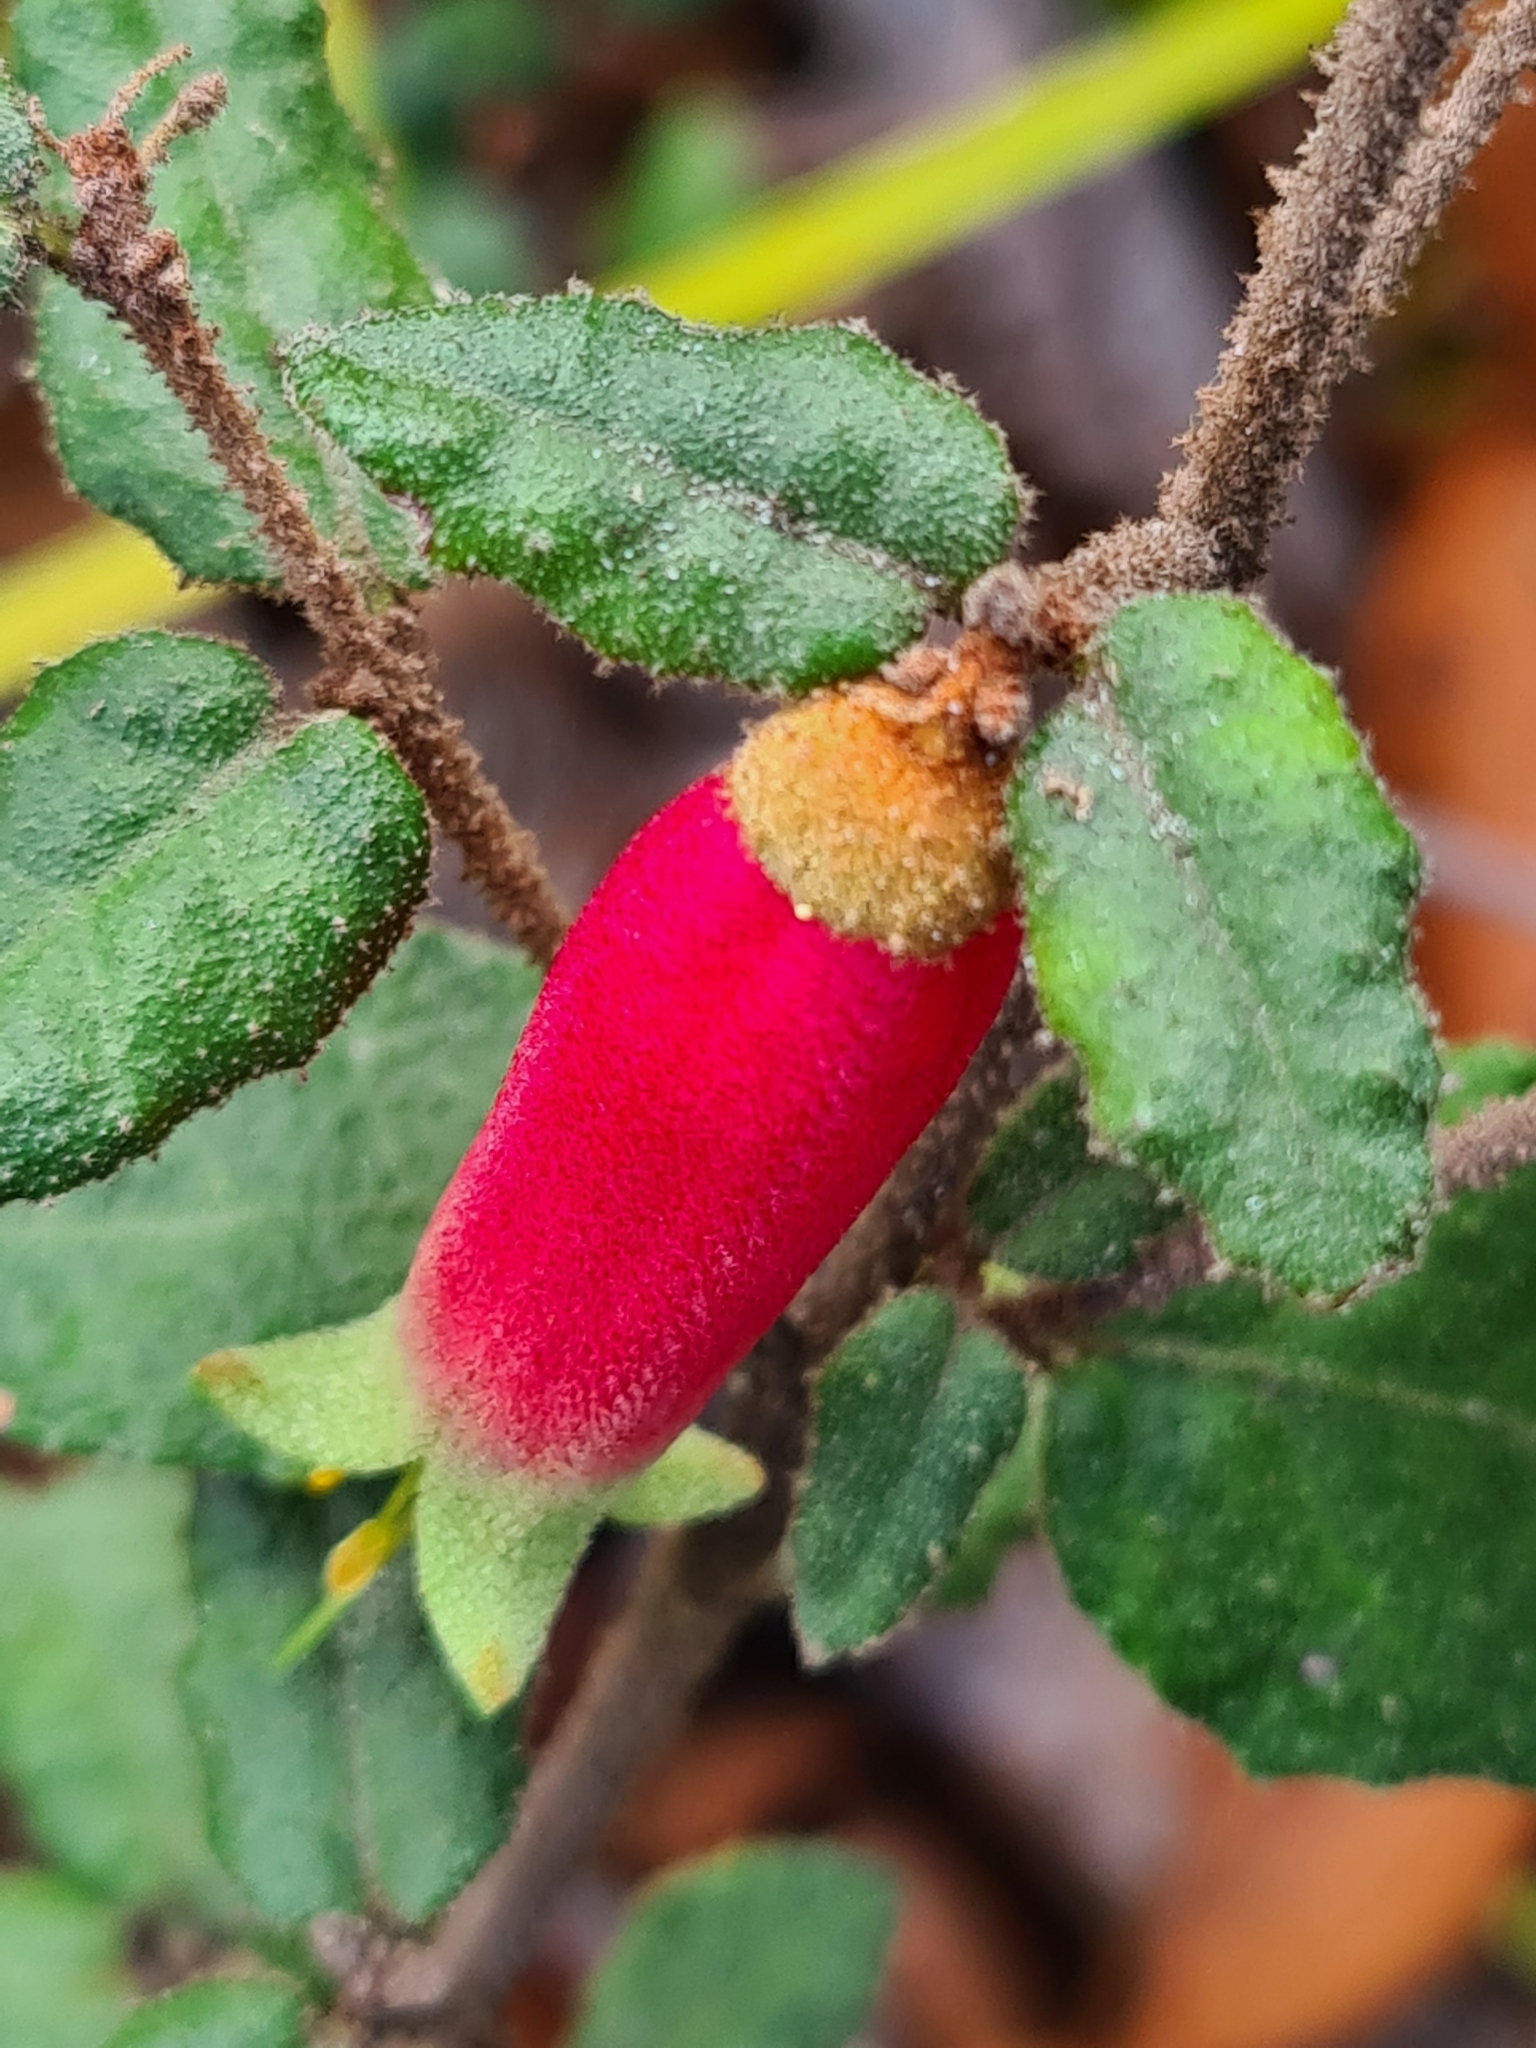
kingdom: Plantae
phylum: Tracheophyta
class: Magnoliopsida
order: Sapindales
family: Rutaceae
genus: Correa
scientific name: Correa reflexa
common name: Common correa
